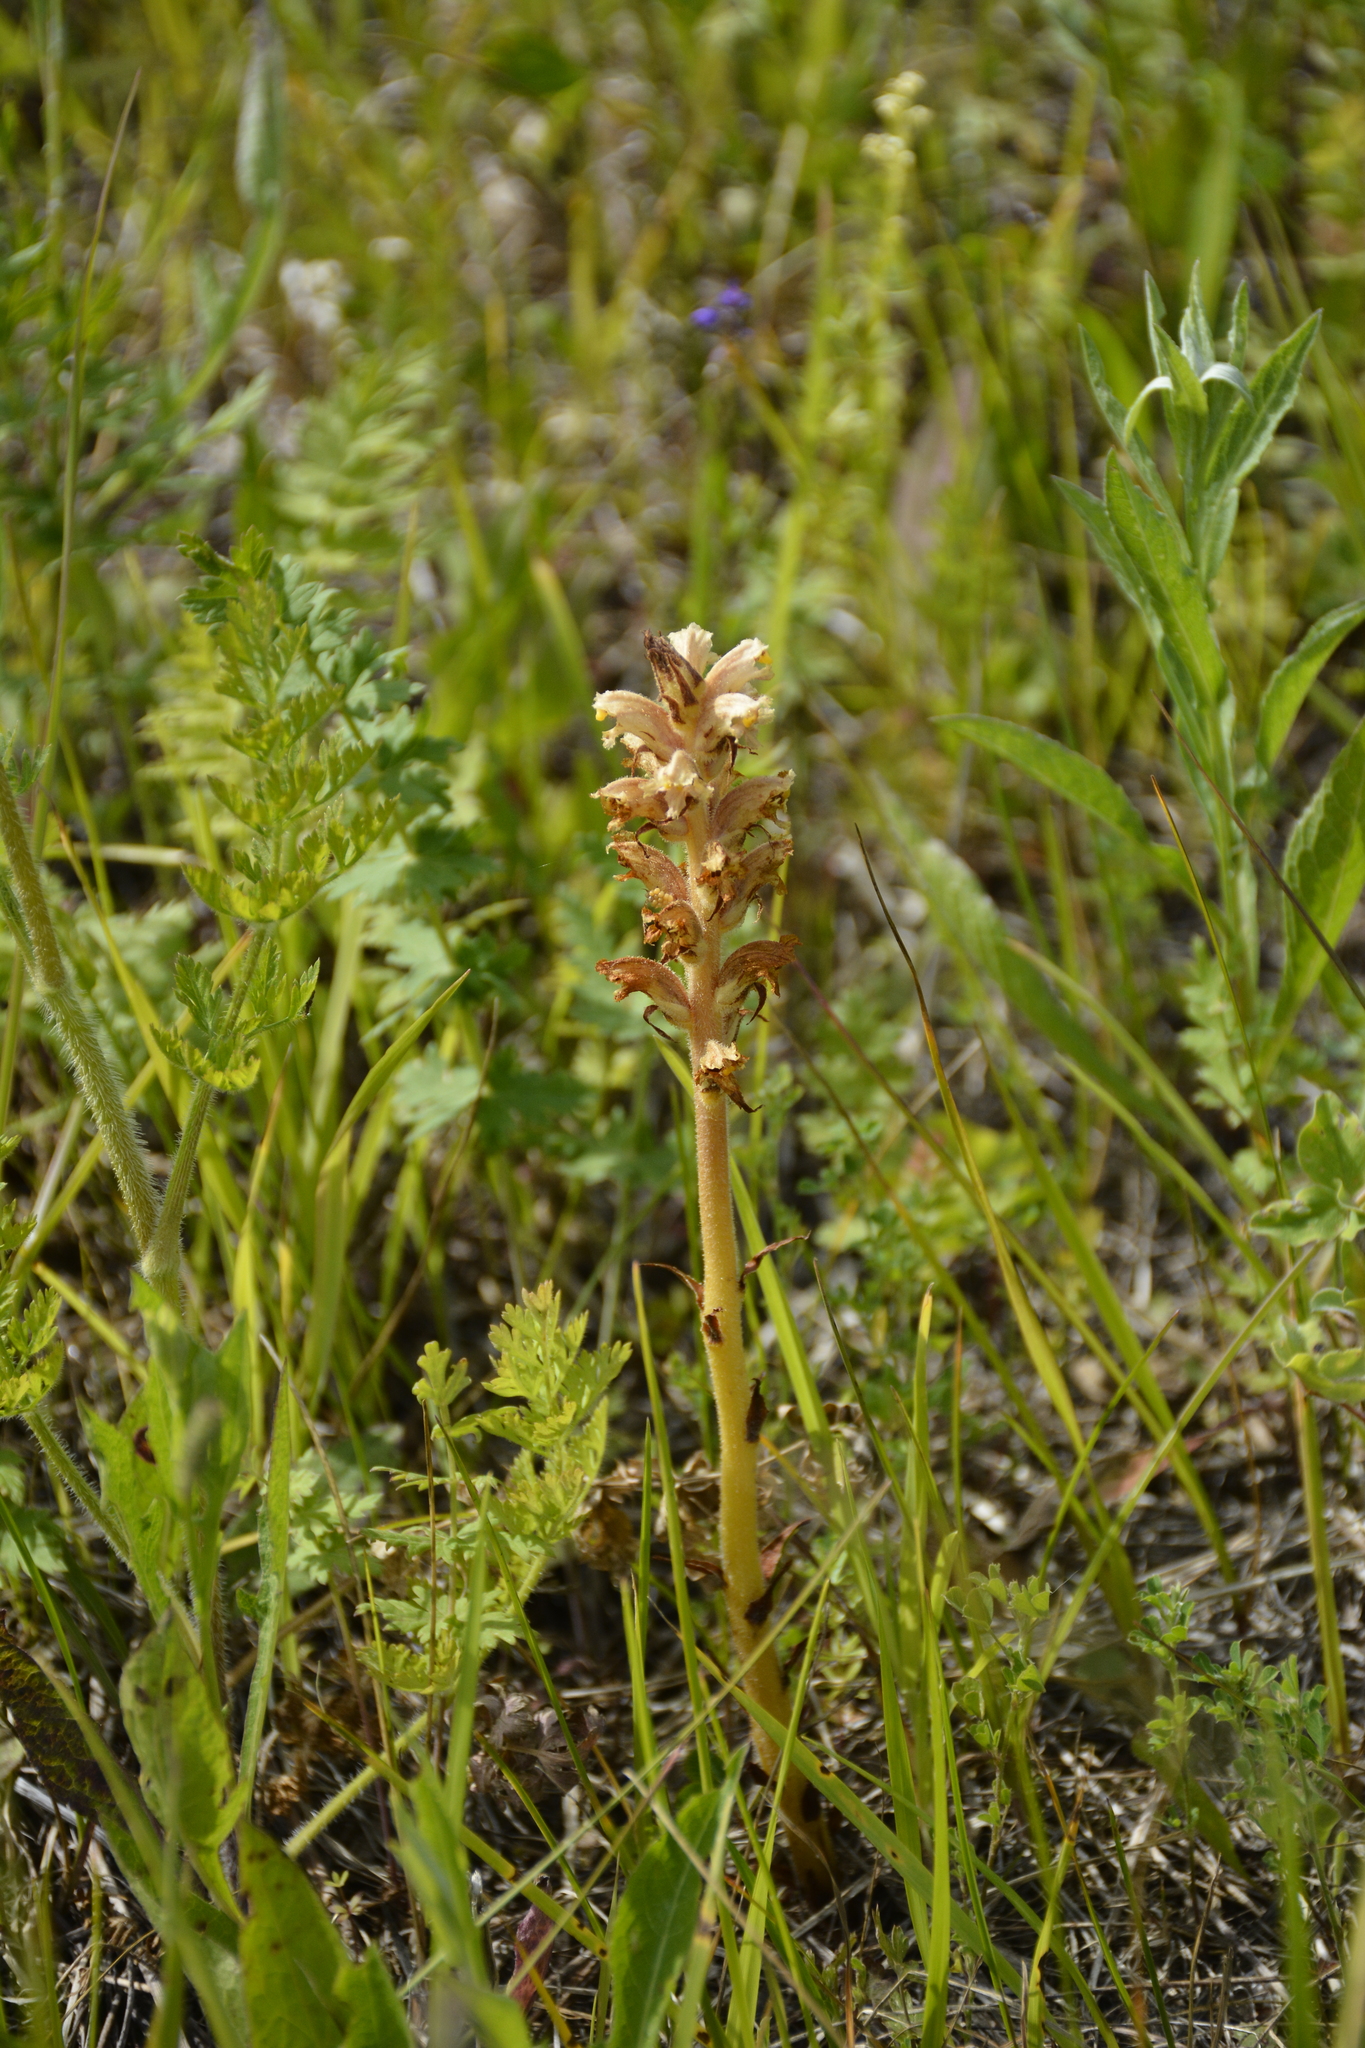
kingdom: Plantae
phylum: Tracheophyta
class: Magnoliopsida
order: Lamiales
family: Orobanchaceae
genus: Orobanche
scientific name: Orobanche alsatica
